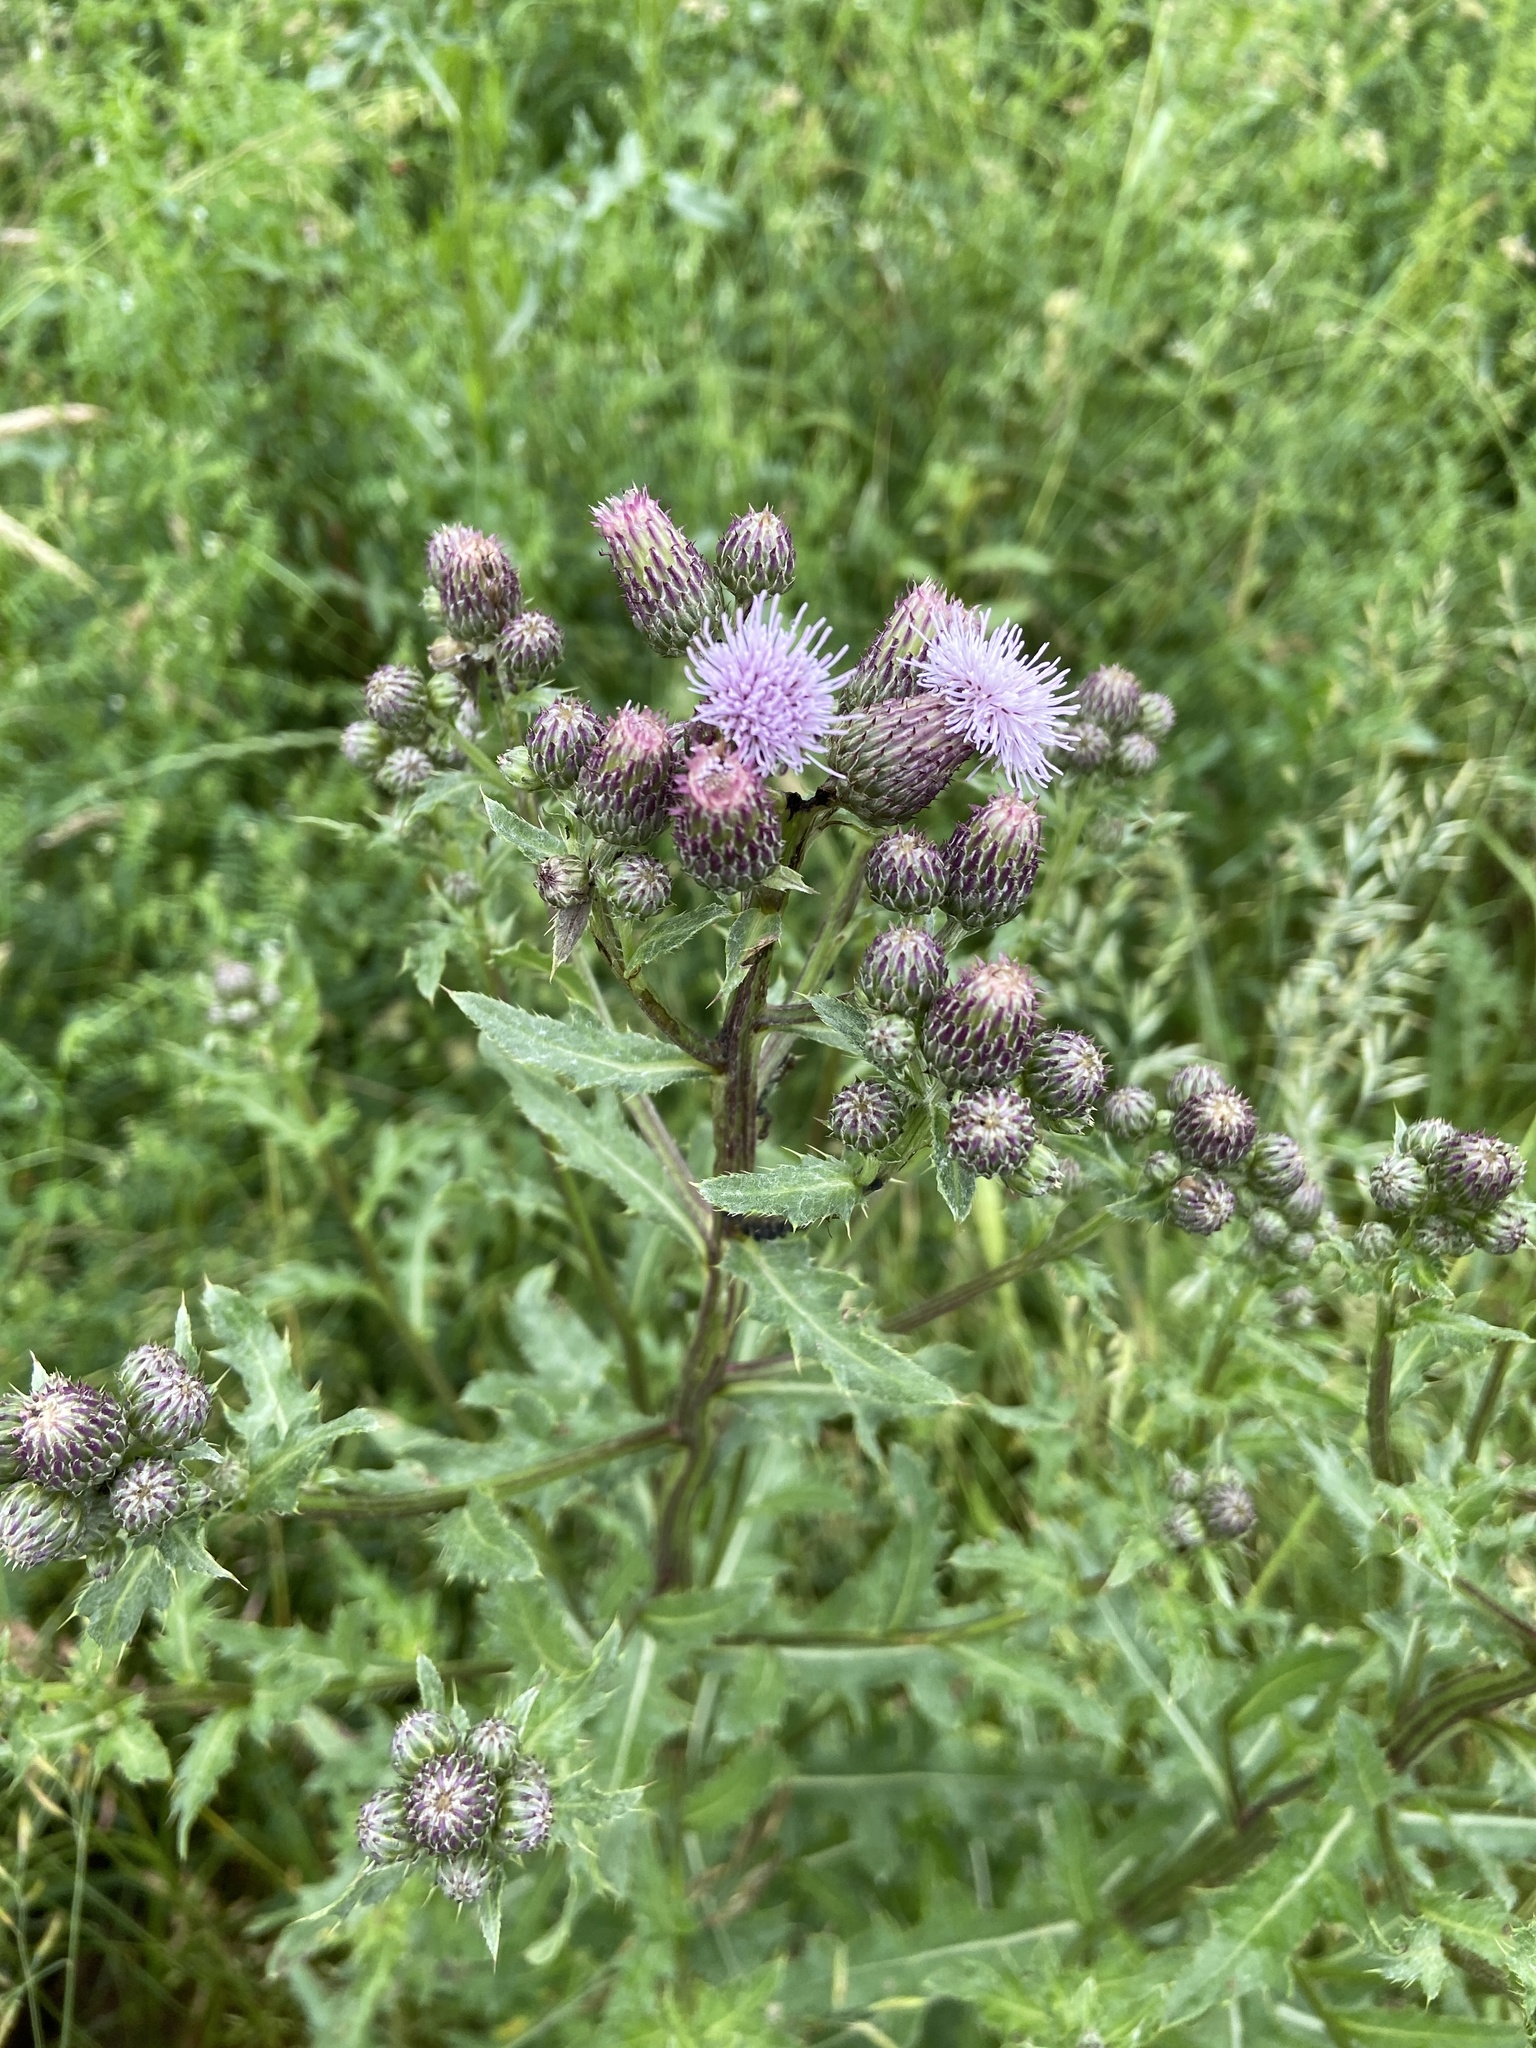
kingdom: Plantae
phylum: Tracheophyta
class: Magnoliopsida
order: Asterales
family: Asteraceae
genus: Cirsium
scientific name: Cirsium arvense
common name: Creeping thistle
